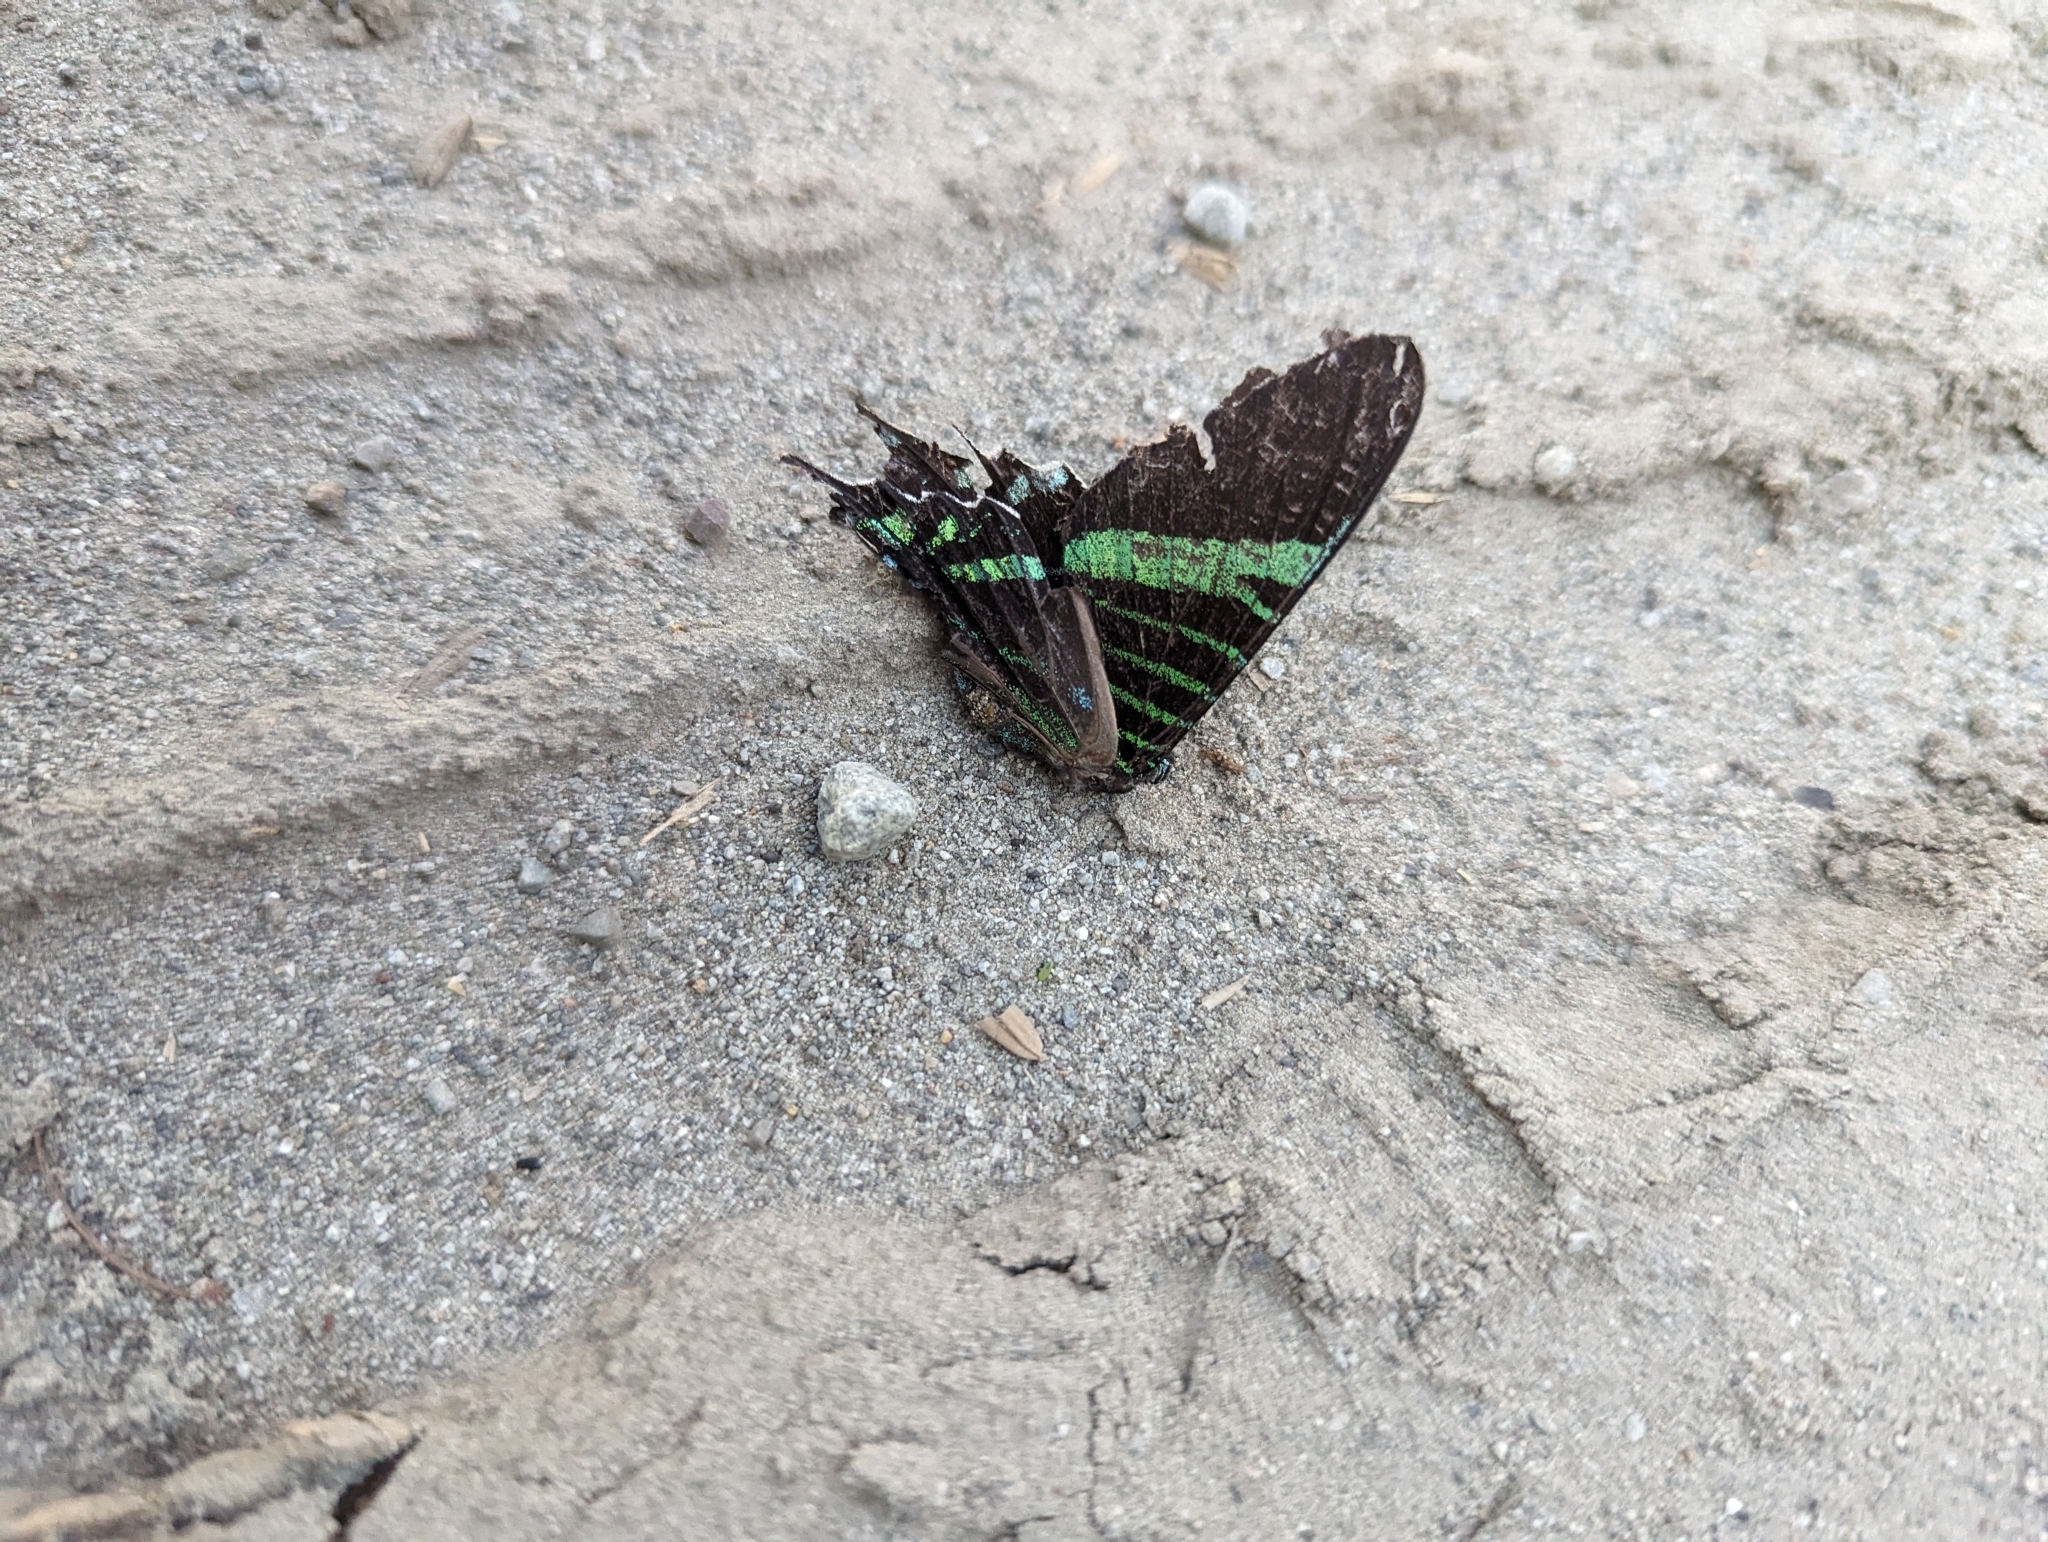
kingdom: Animalia
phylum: Arthropoda
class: Insecta
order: Lepidoptera
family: Uraniidae
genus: Urania
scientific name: Urania fulgens
